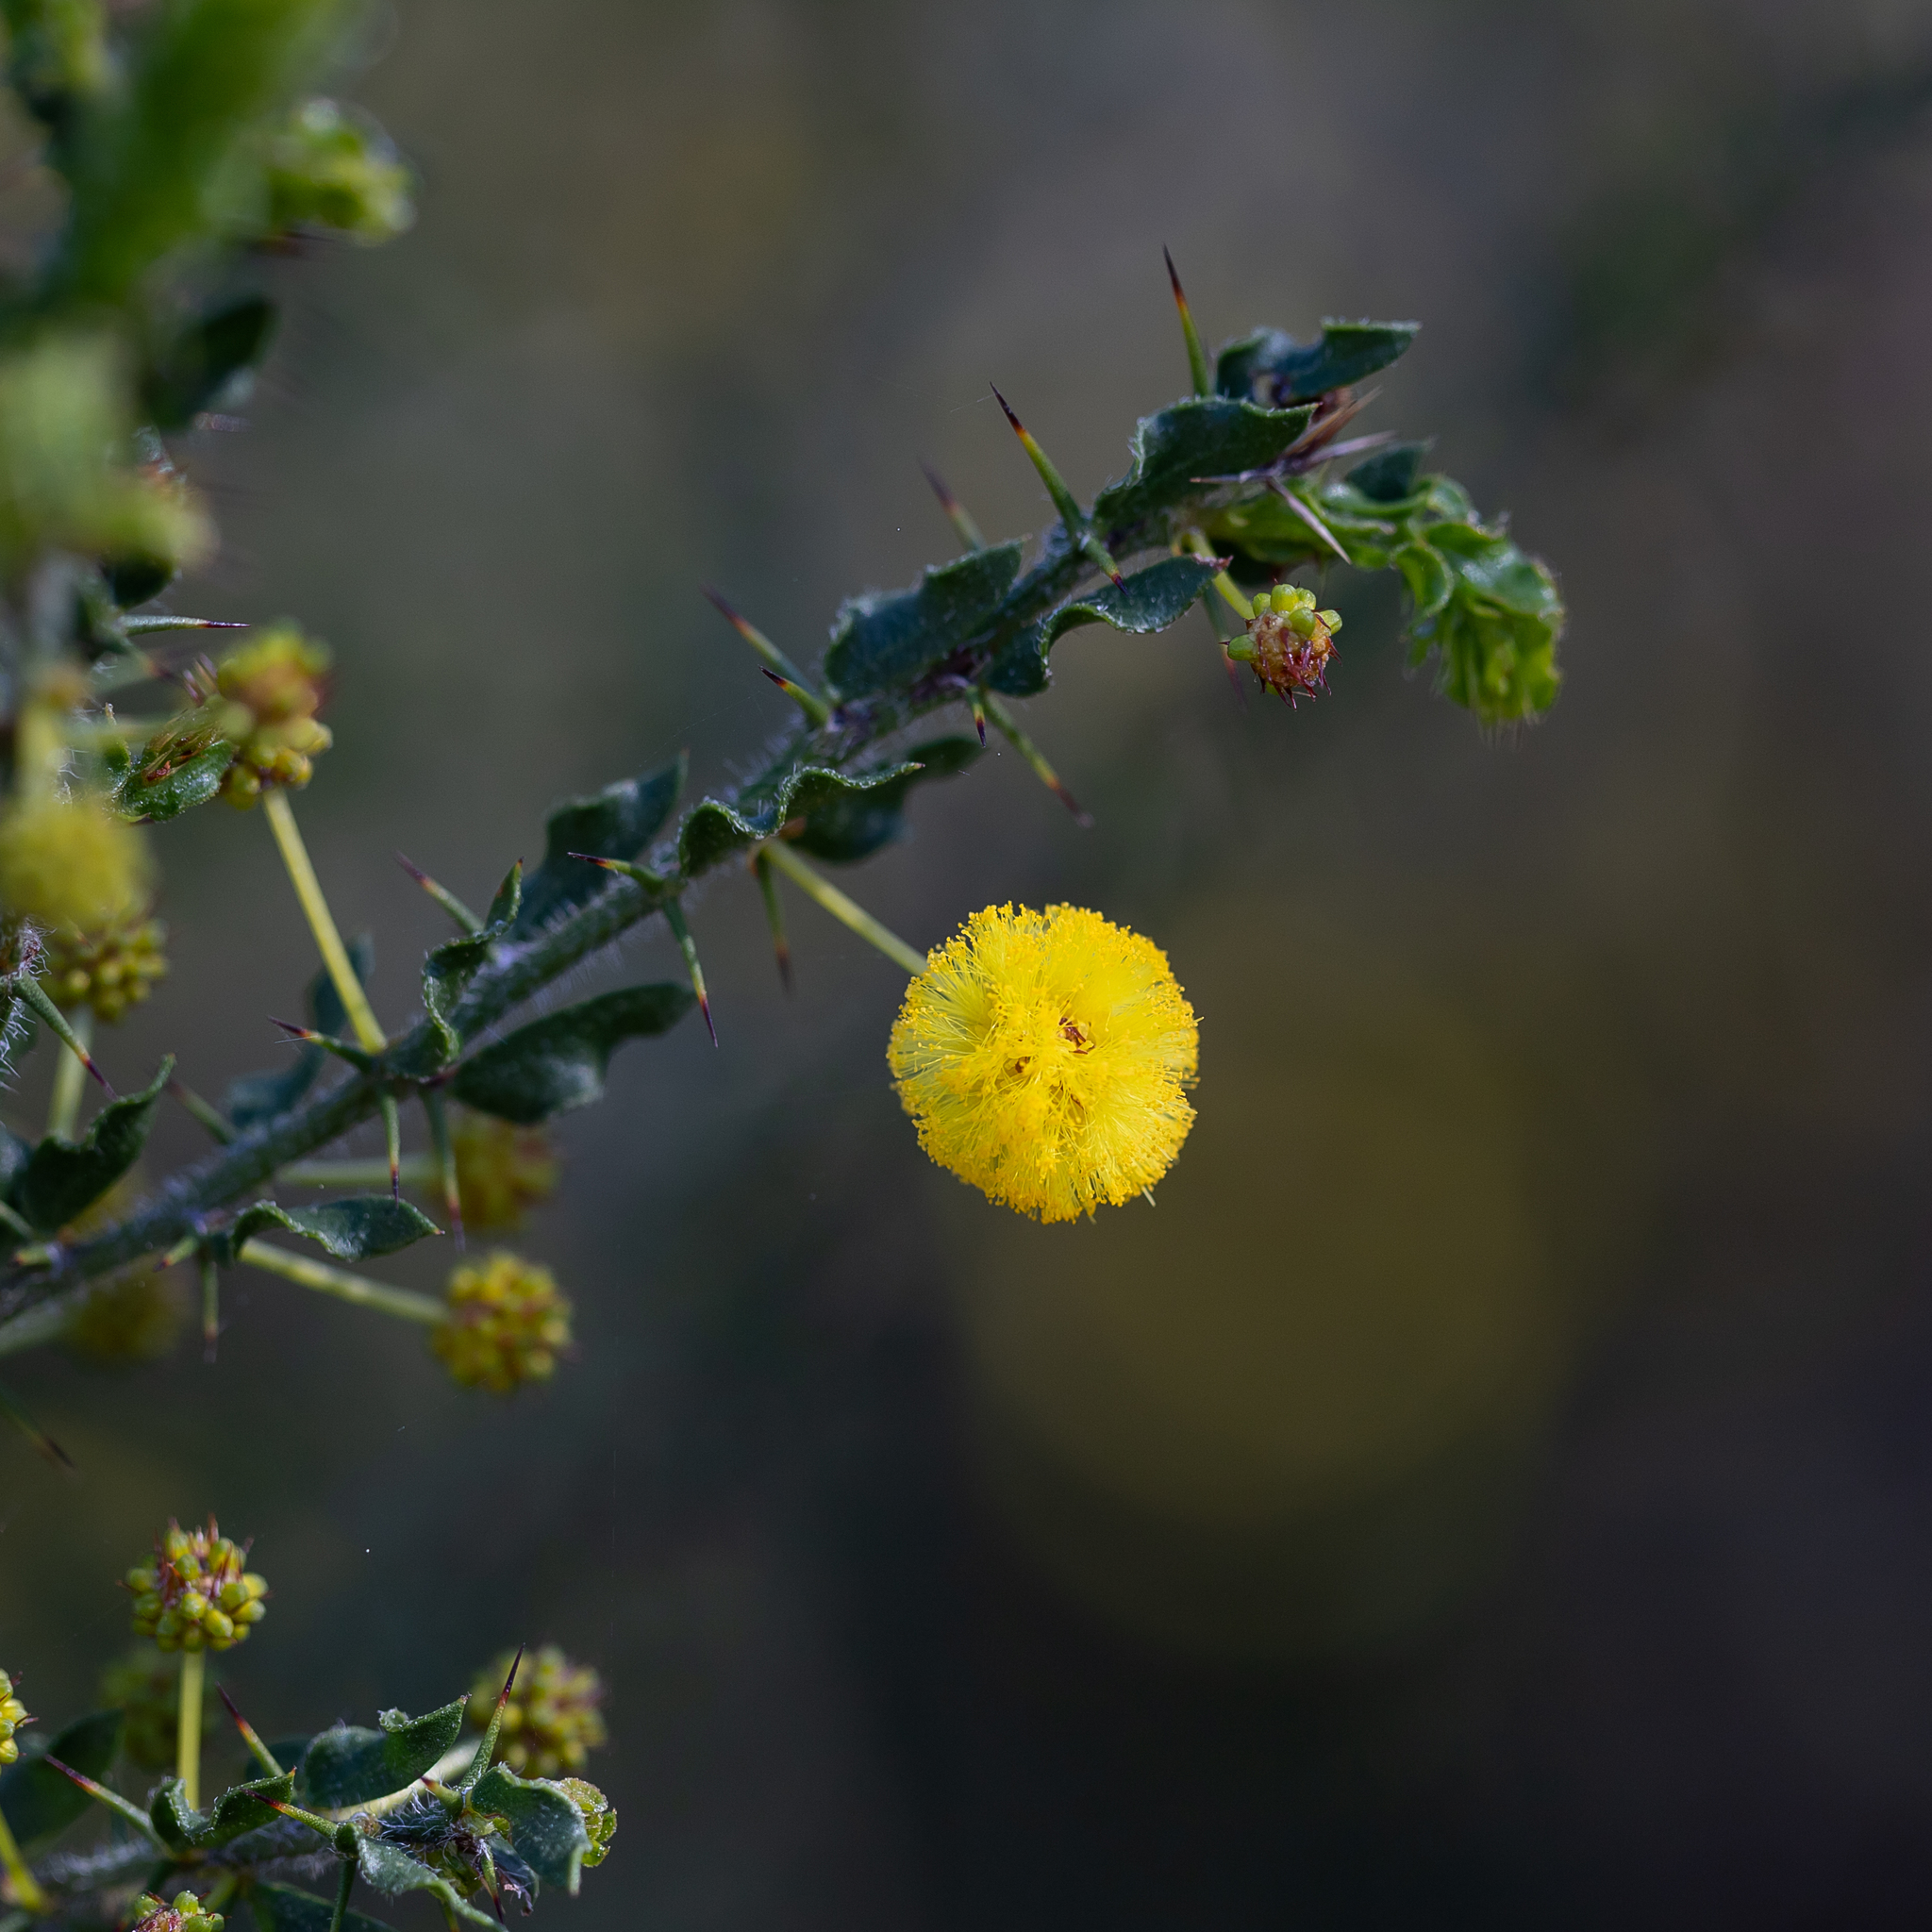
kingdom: Plantae
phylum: Tracheophyta
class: Magnoliopsida
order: Fabales
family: Fabaceae
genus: Acacia
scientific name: Acacia paradoxa
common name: Paradox acacia
